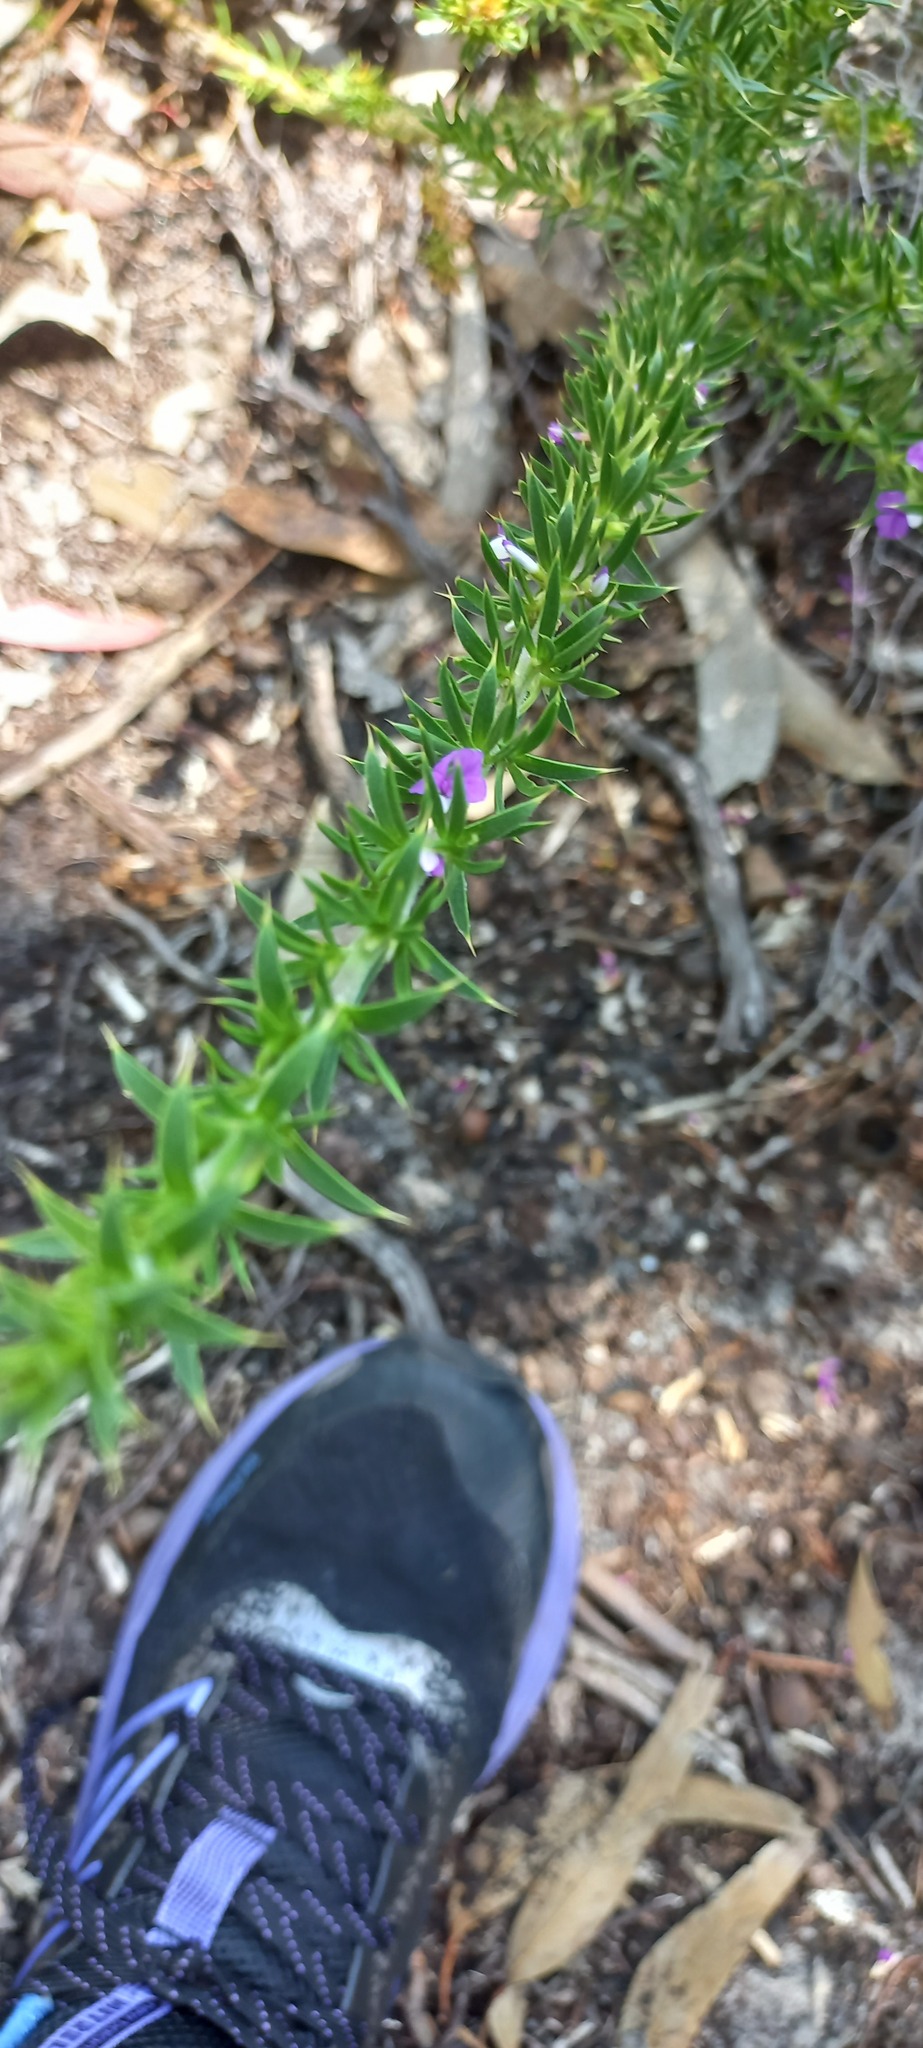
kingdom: Plantae
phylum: Tracheophyta
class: Magnoliopsida
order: Fabales
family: Polygalaceae
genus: Muraltia
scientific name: Muraltia heisteria
